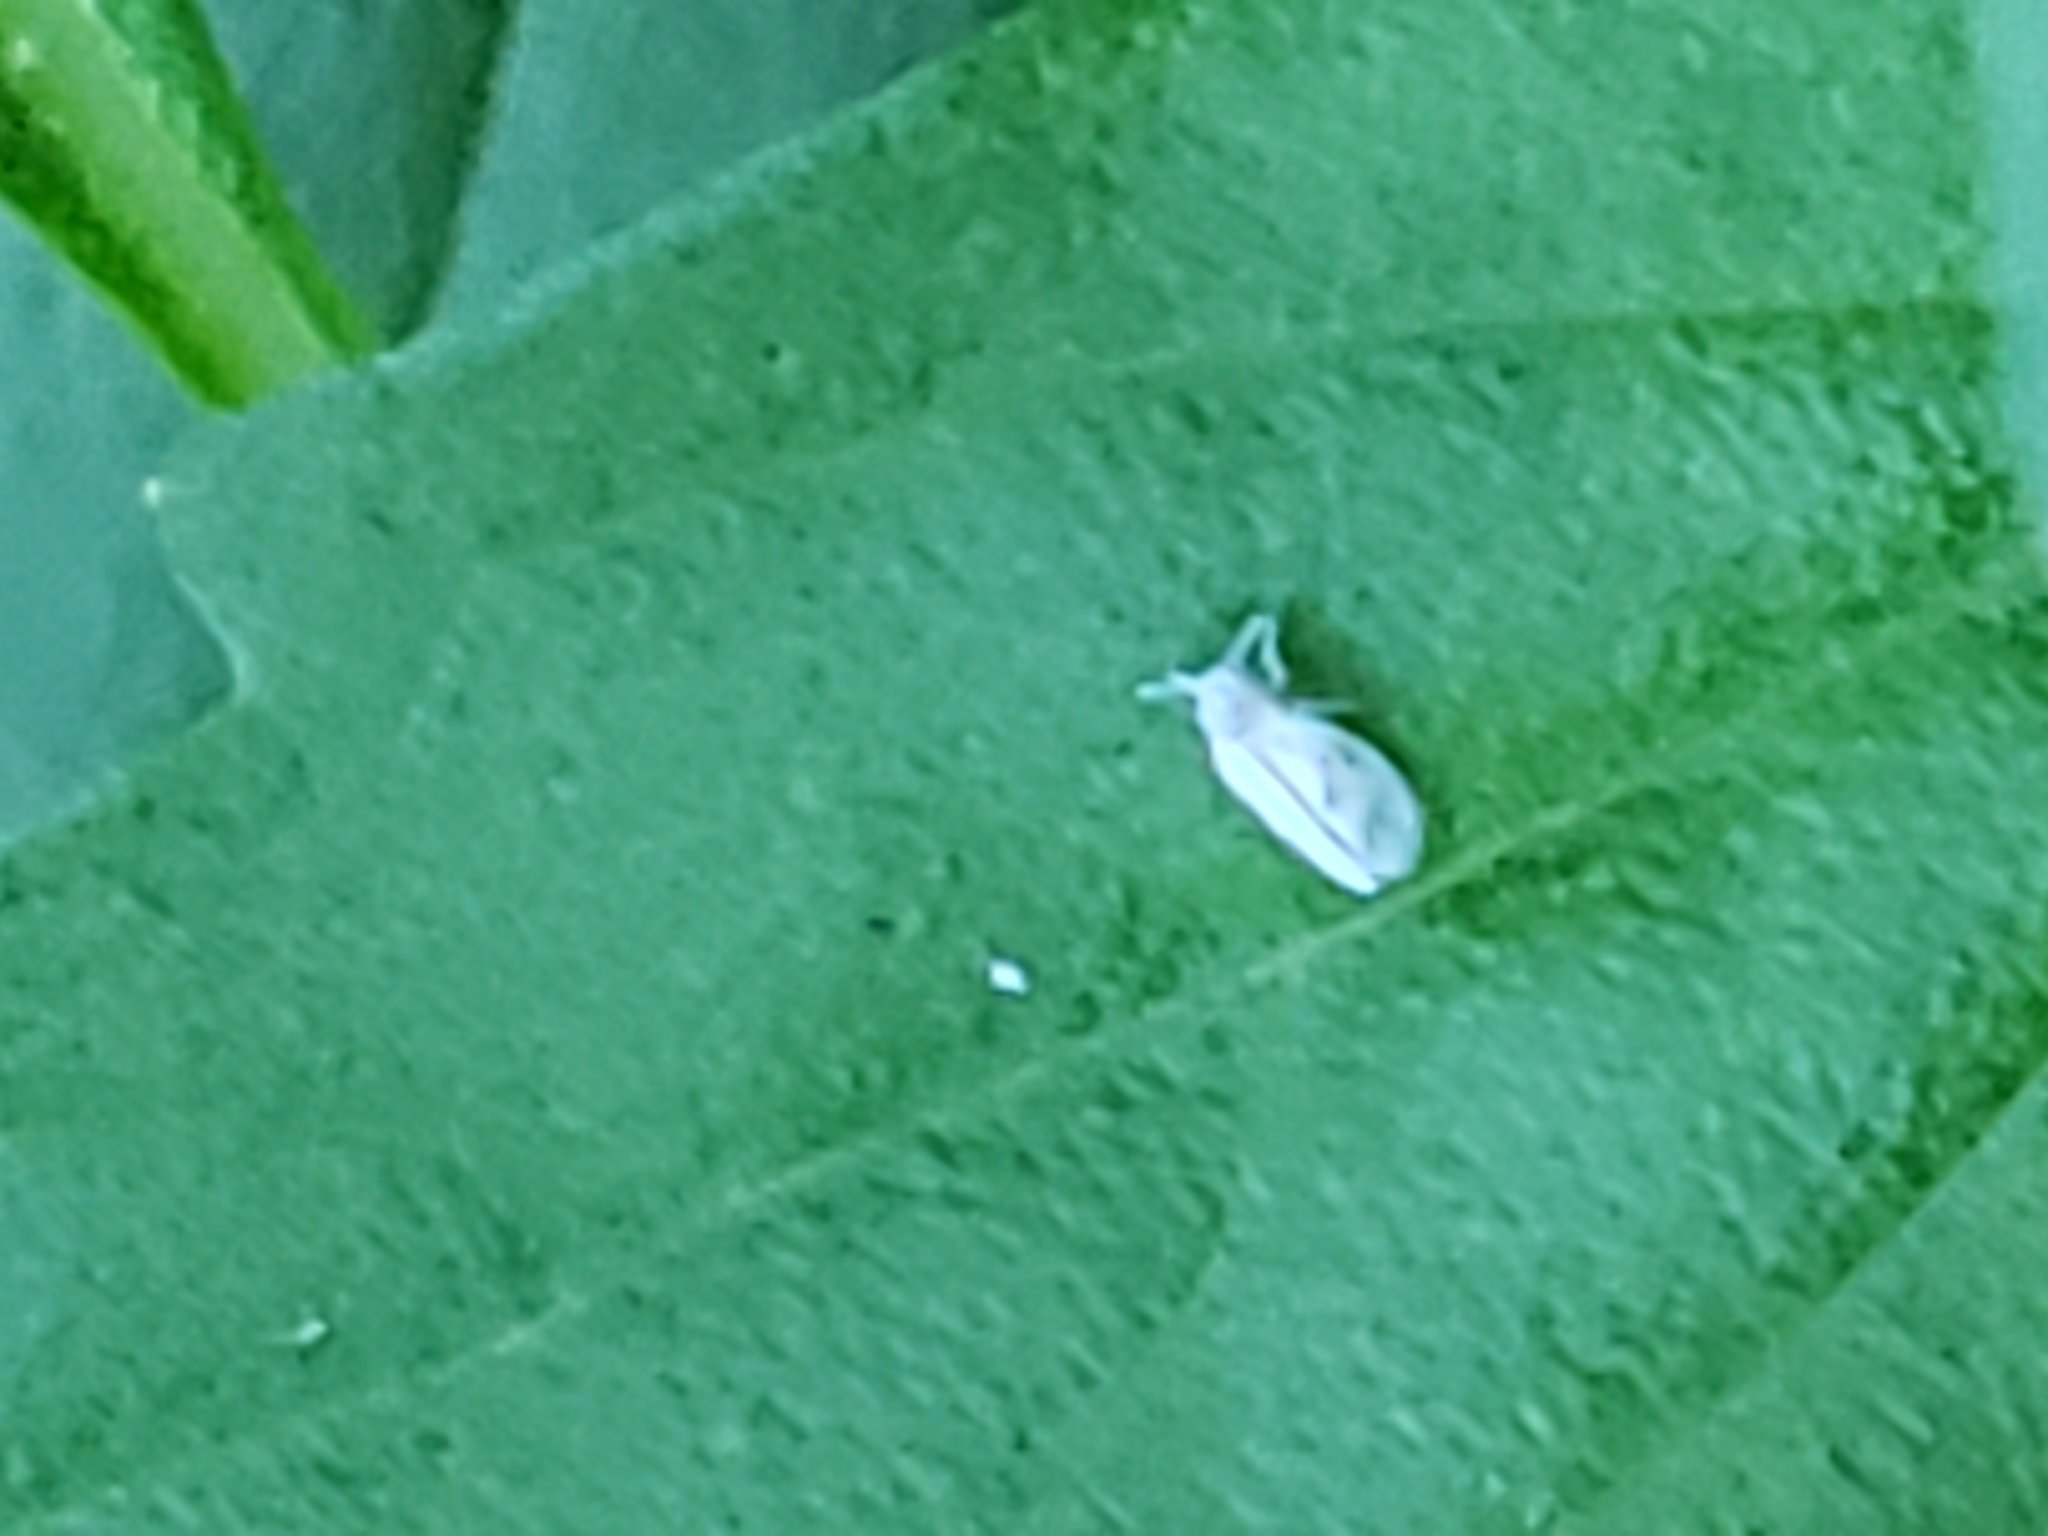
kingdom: Animalia
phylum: Arthropoda
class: Insecta
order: Hemiptera
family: Aleyrodidae
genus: Tetraleurodes
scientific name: Tetraleurodes mori
